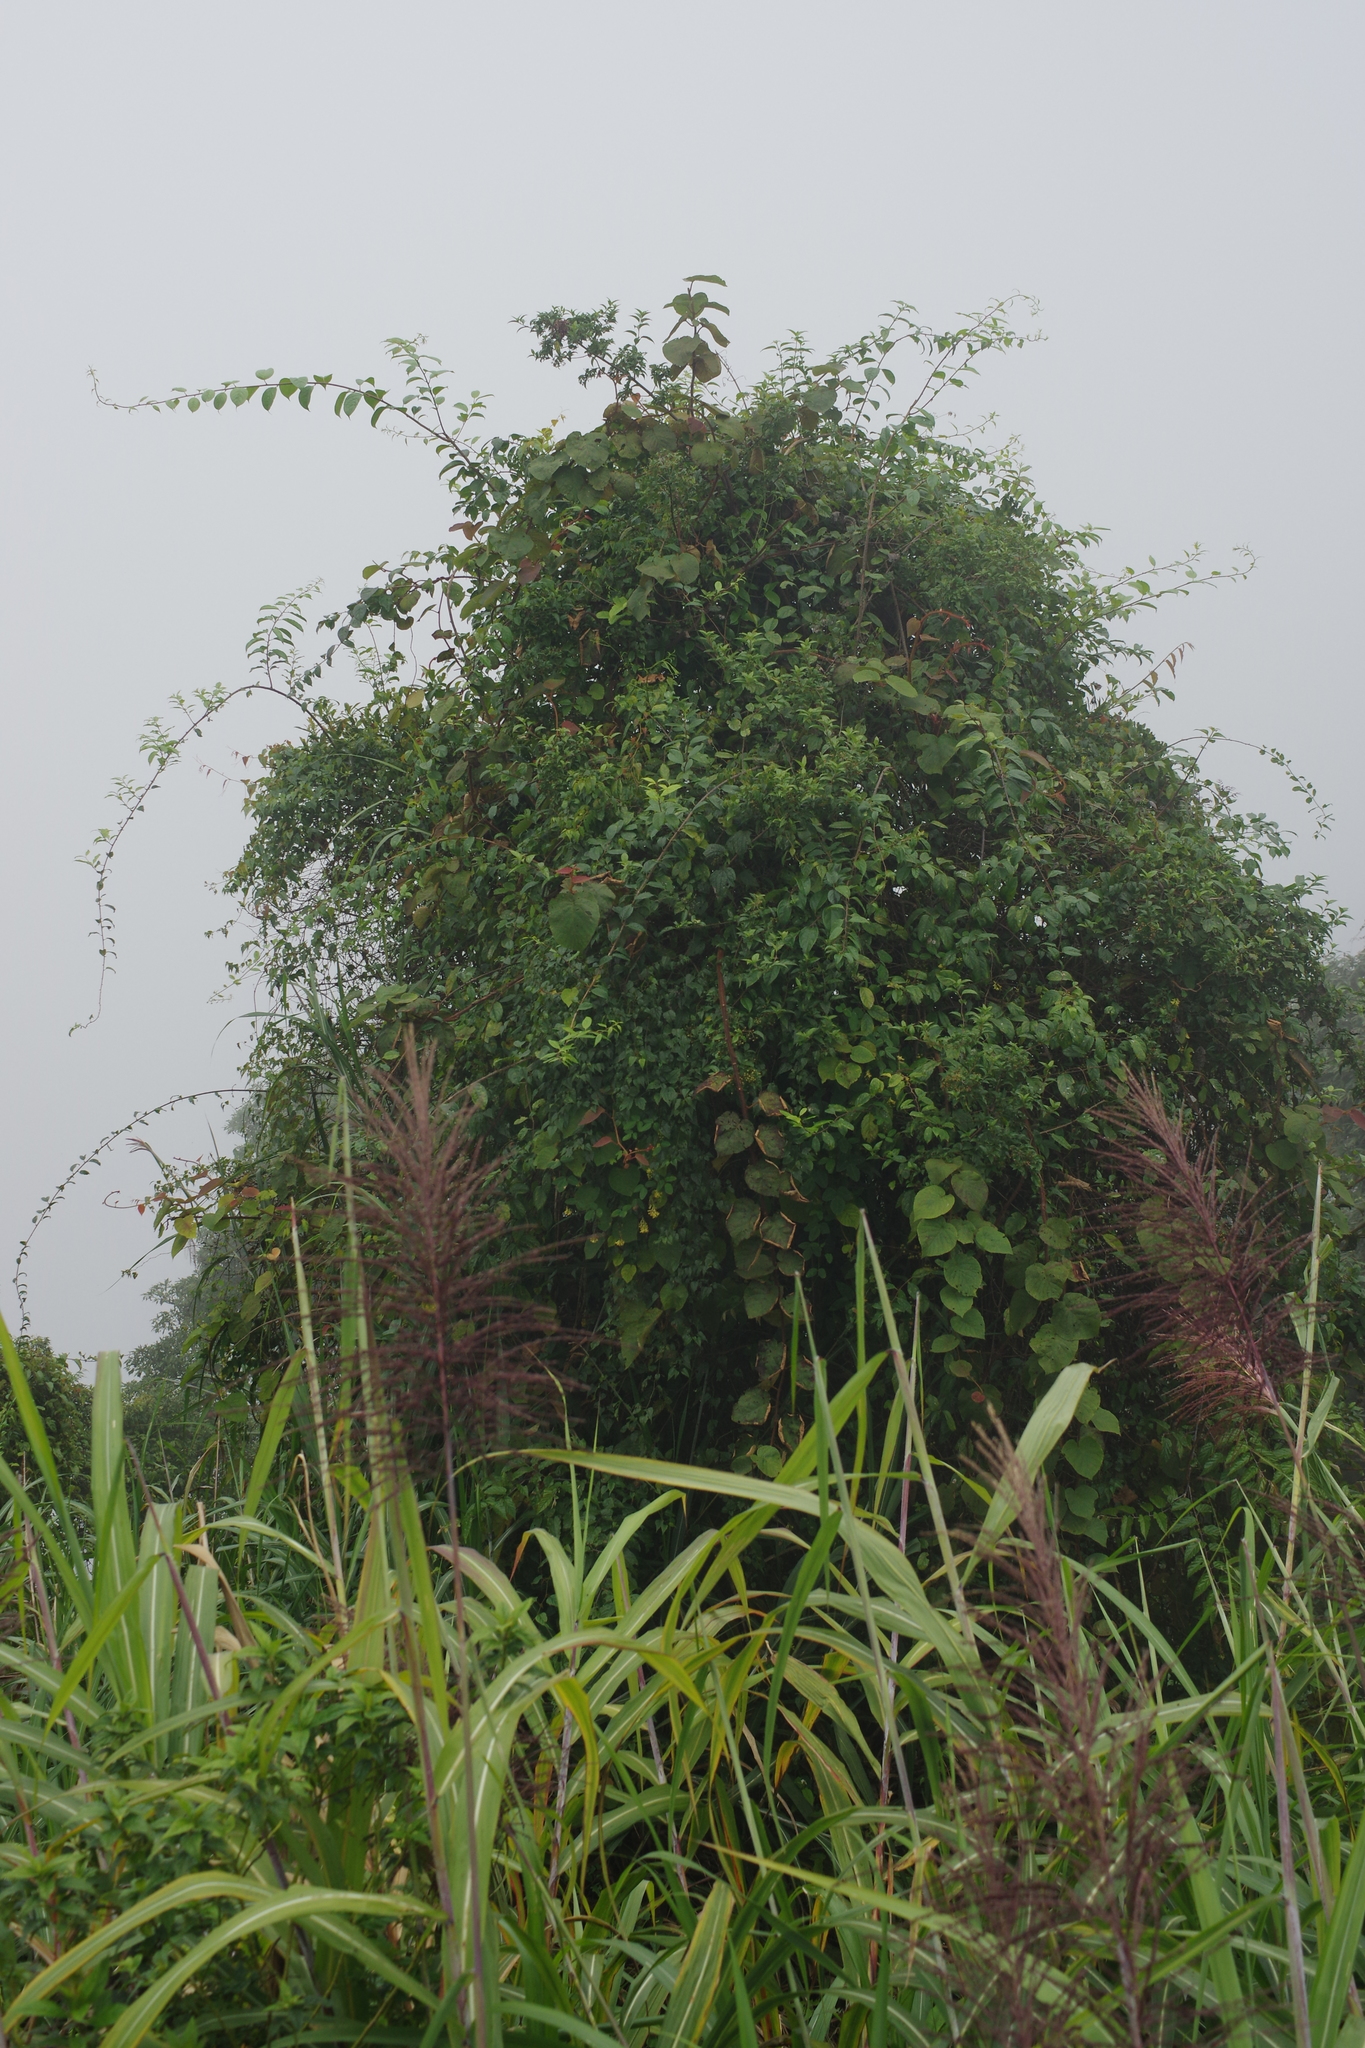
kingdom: Plantae
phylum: Tracheophyta
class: Magnoliopsida
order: Ericales
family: Actinidiaceae
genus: Actinidia
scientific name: Actinidia chinensis
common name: Kiwi
